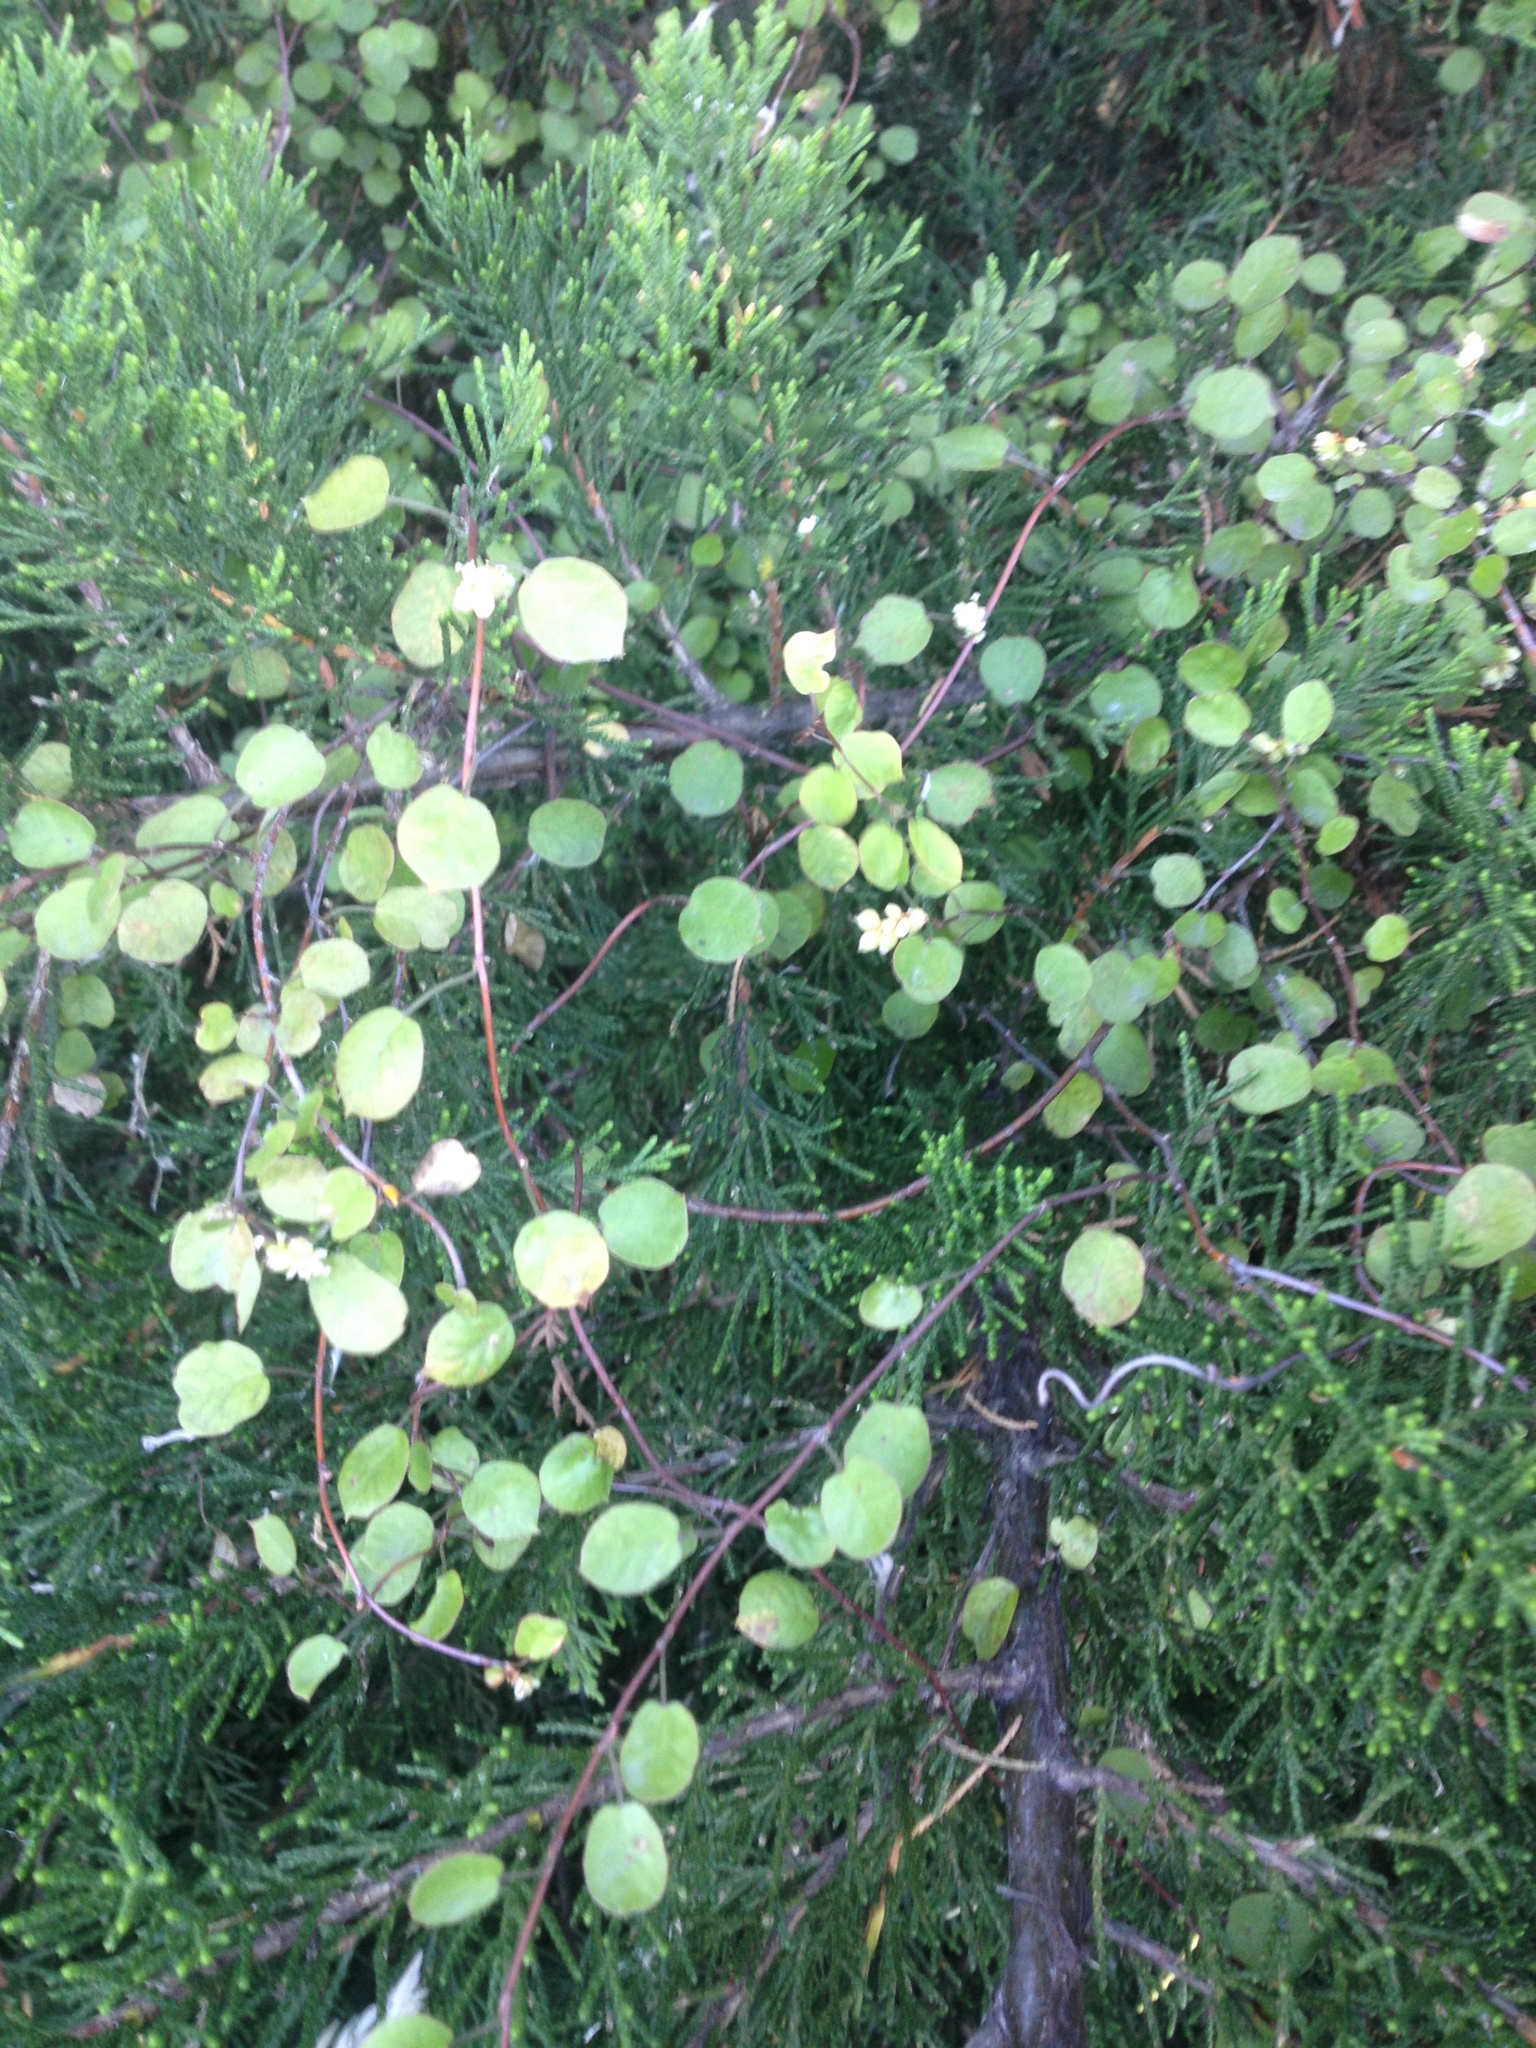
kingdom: Plantae
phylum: Tracheophyta
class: Magnoliopsida
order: Caryophyllales
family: Polygonaceae
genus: Muehlenbeckia
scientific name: Muehlenbeckia complexa
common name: Wireplant
